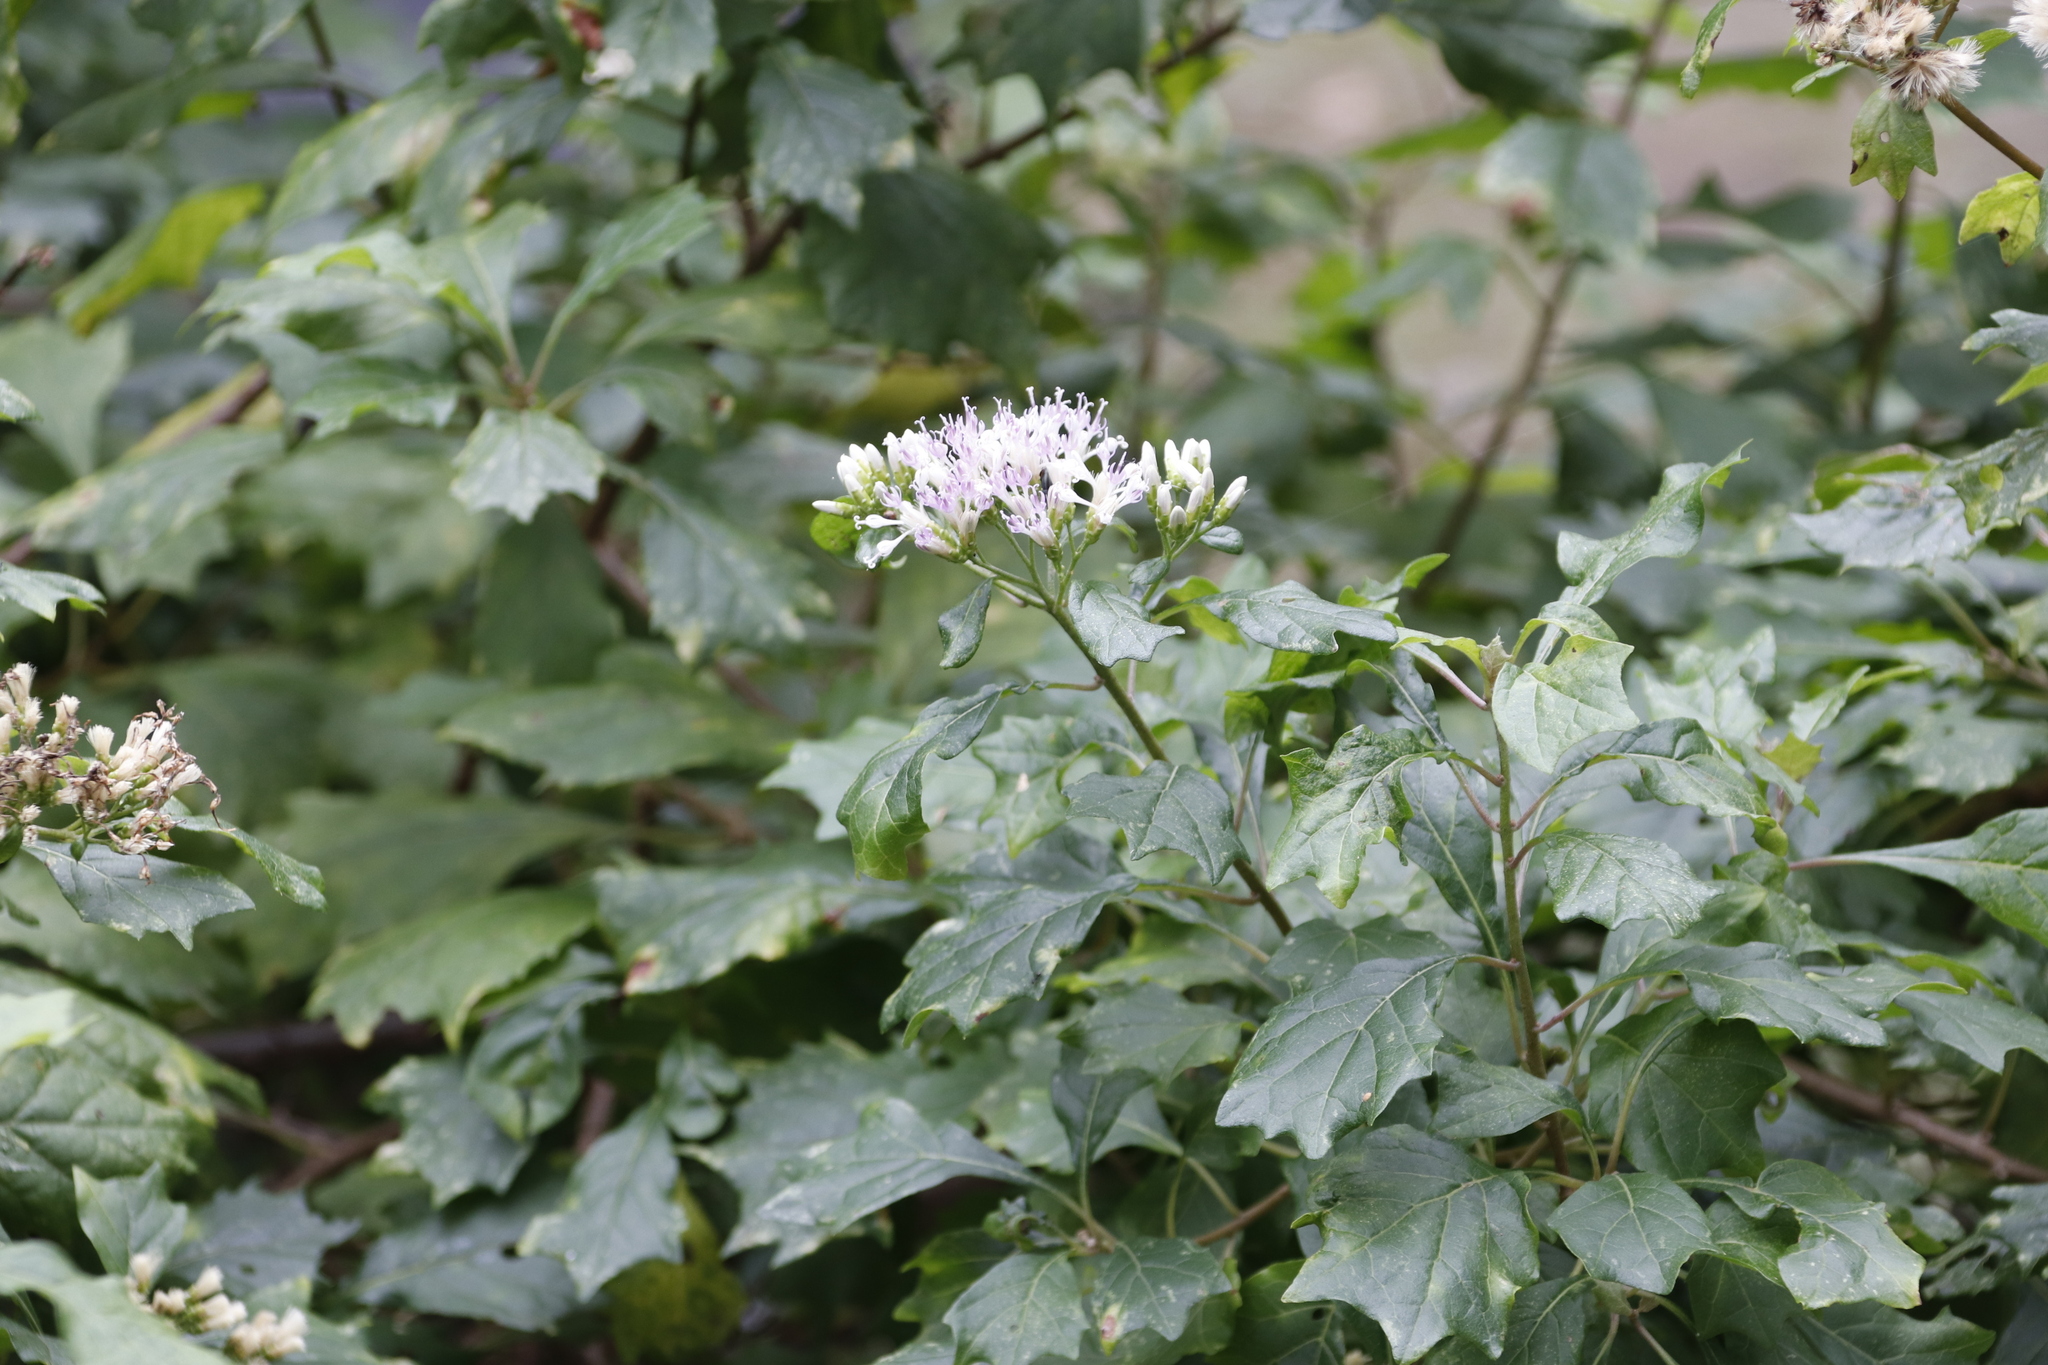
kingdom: Plantae
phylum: Tracheophyta
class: Magnoliopsida
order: Asterales
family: Asteraceae
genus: Gymnanthemum
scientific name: Gymnanthemum capense
